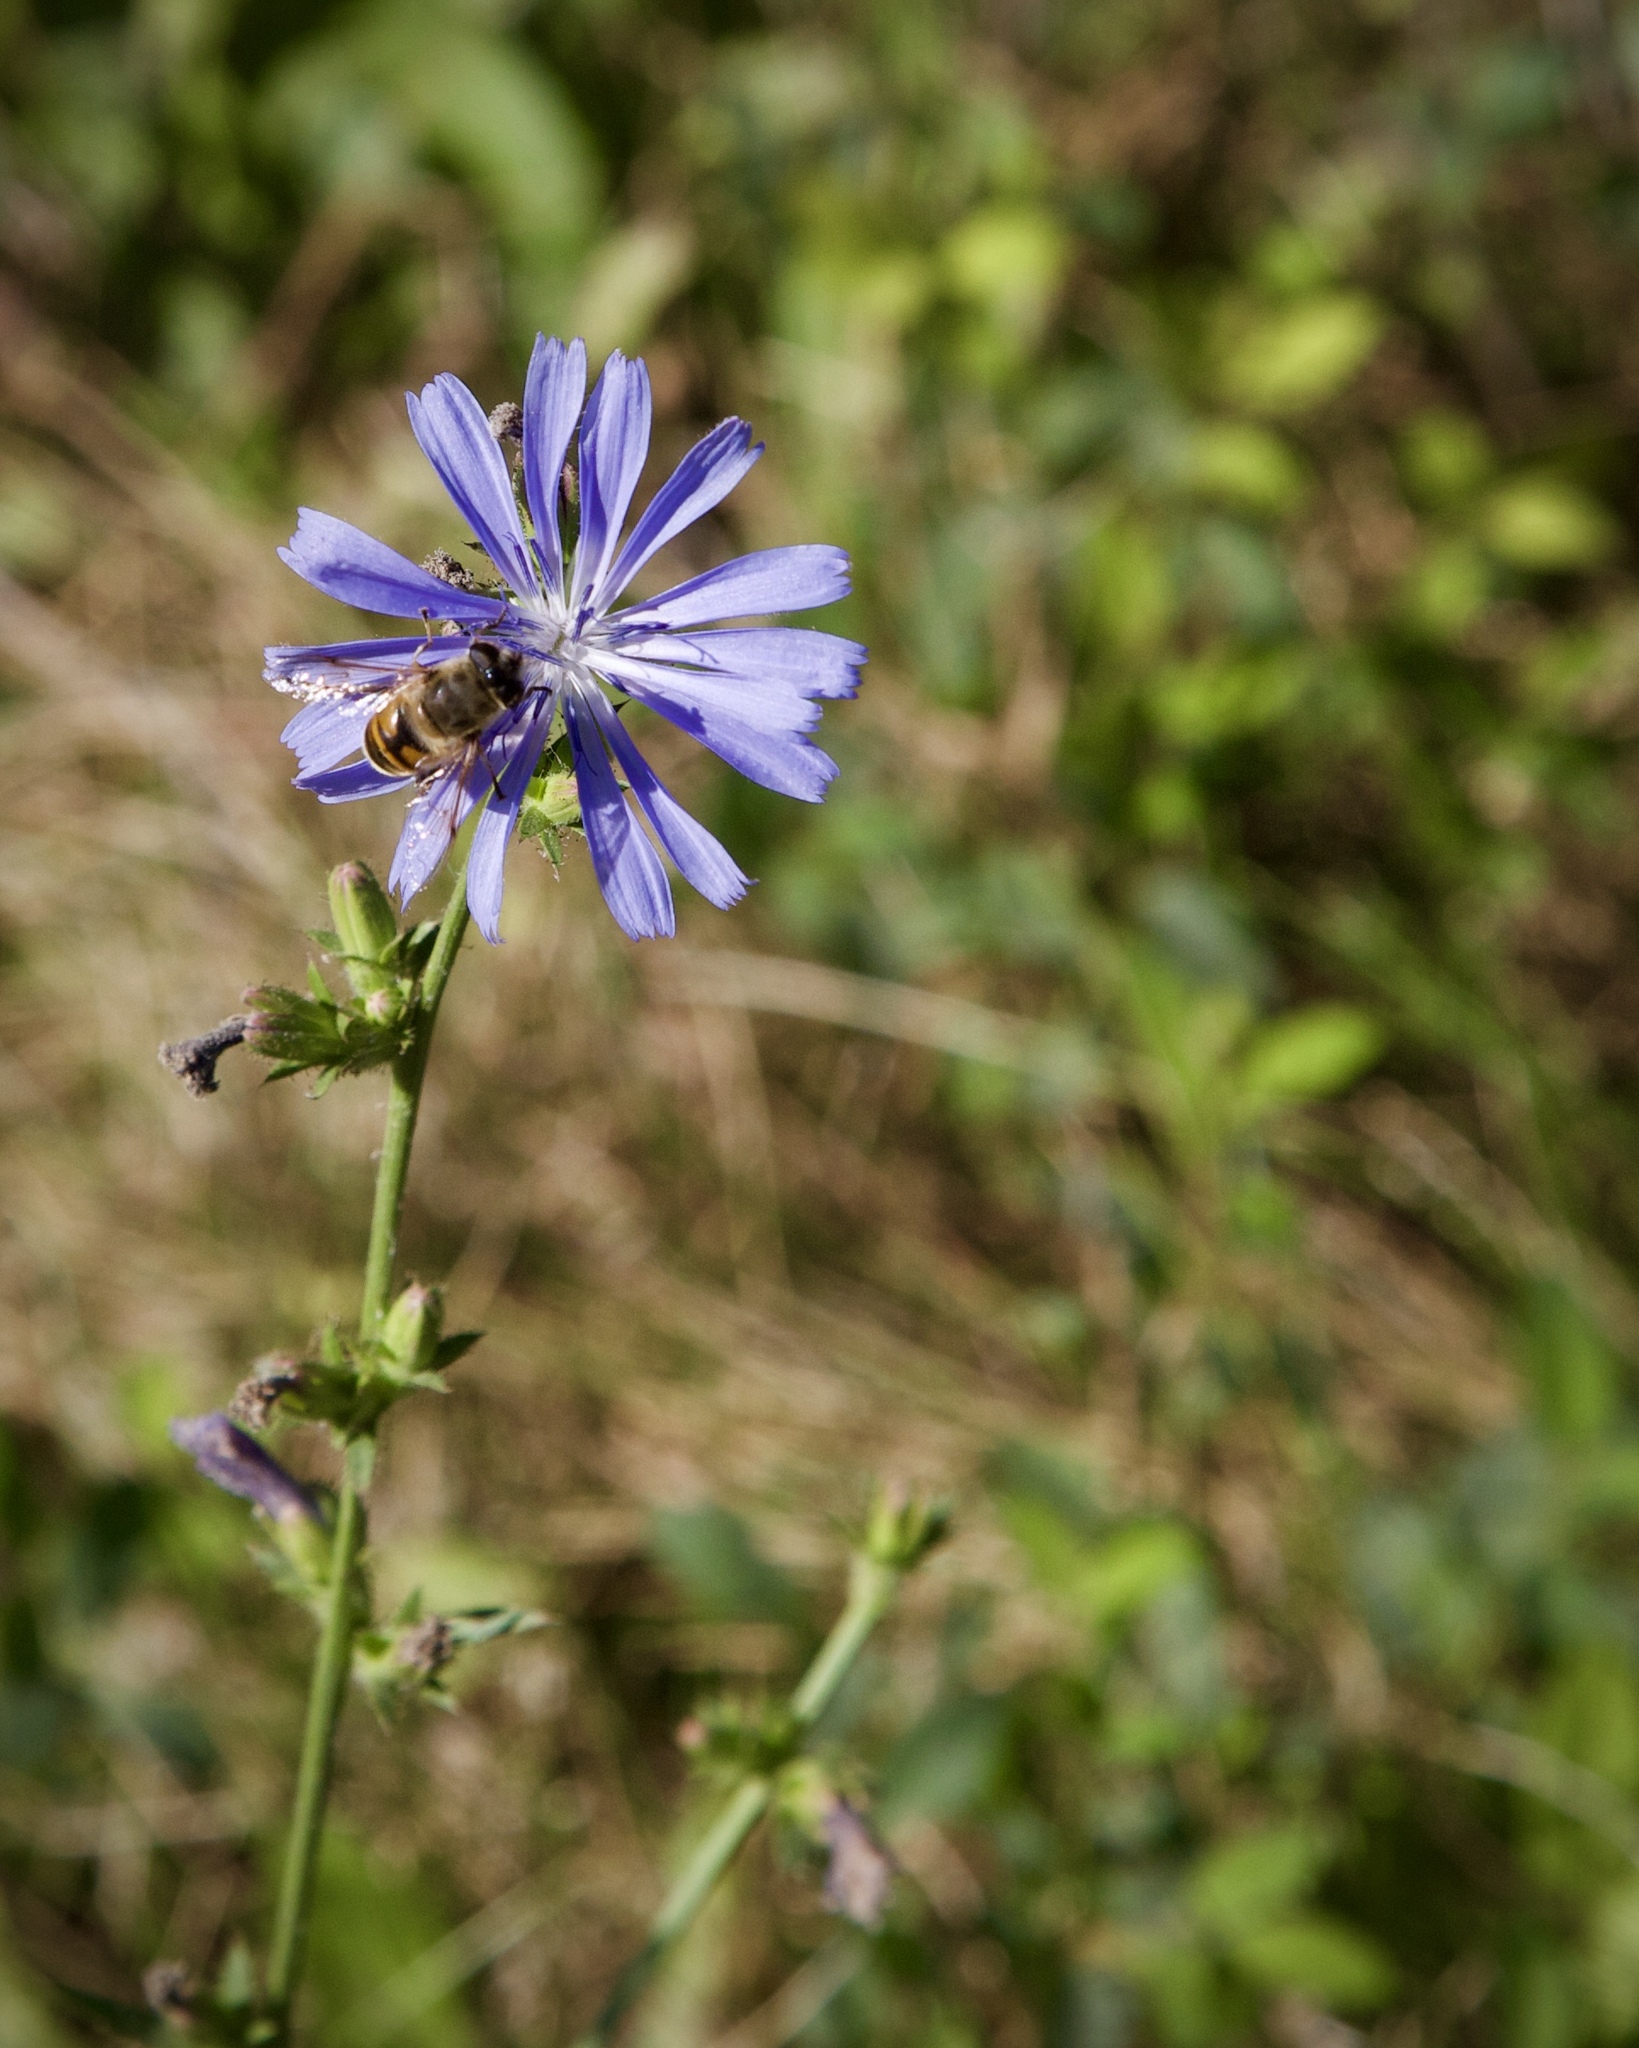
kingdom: Plantae
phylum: Tracheophyta
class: Magnoliopsida
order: Asterales
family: Asteraceae
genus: Cichorium
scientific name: Cichorium intybus
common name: Chicory
